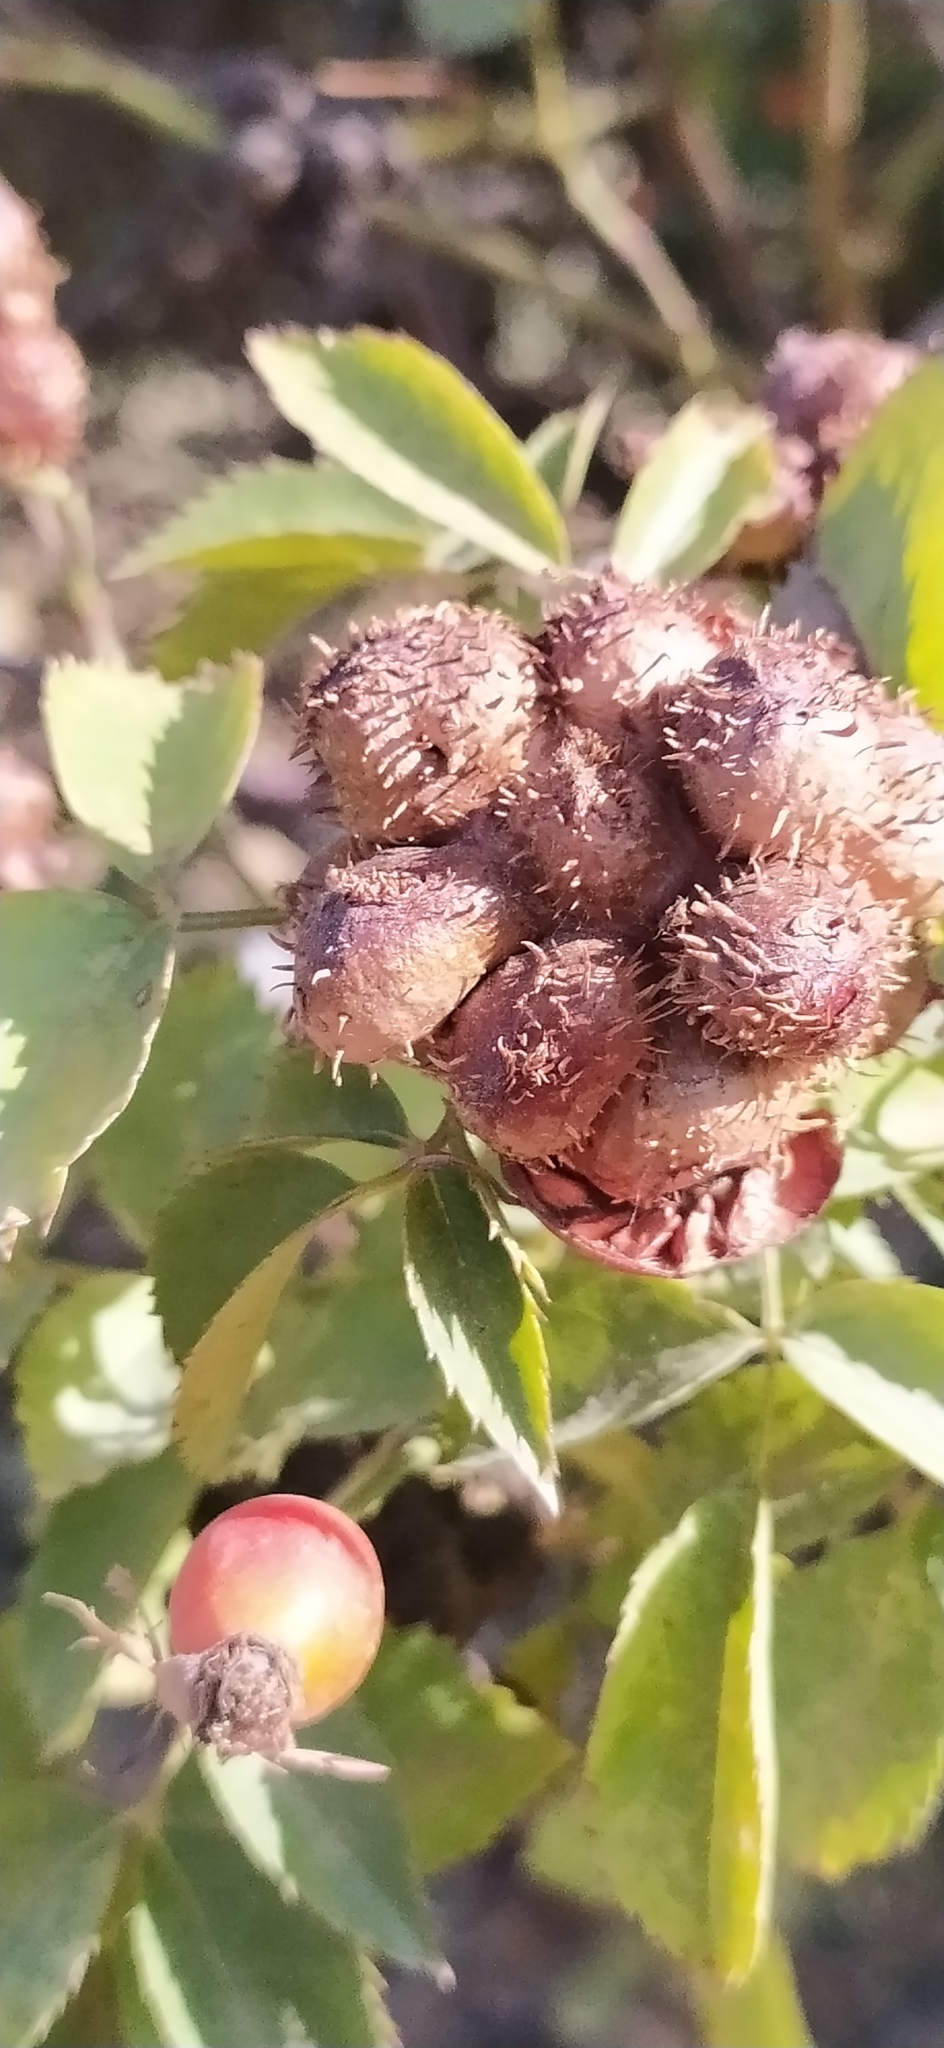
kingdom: Animalia
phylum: Arthropoda
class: Insecta
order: Hymenoptera
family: Cynipidae
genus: Diplolepis
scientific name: Diplolepis mayri
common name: Gall wasp
